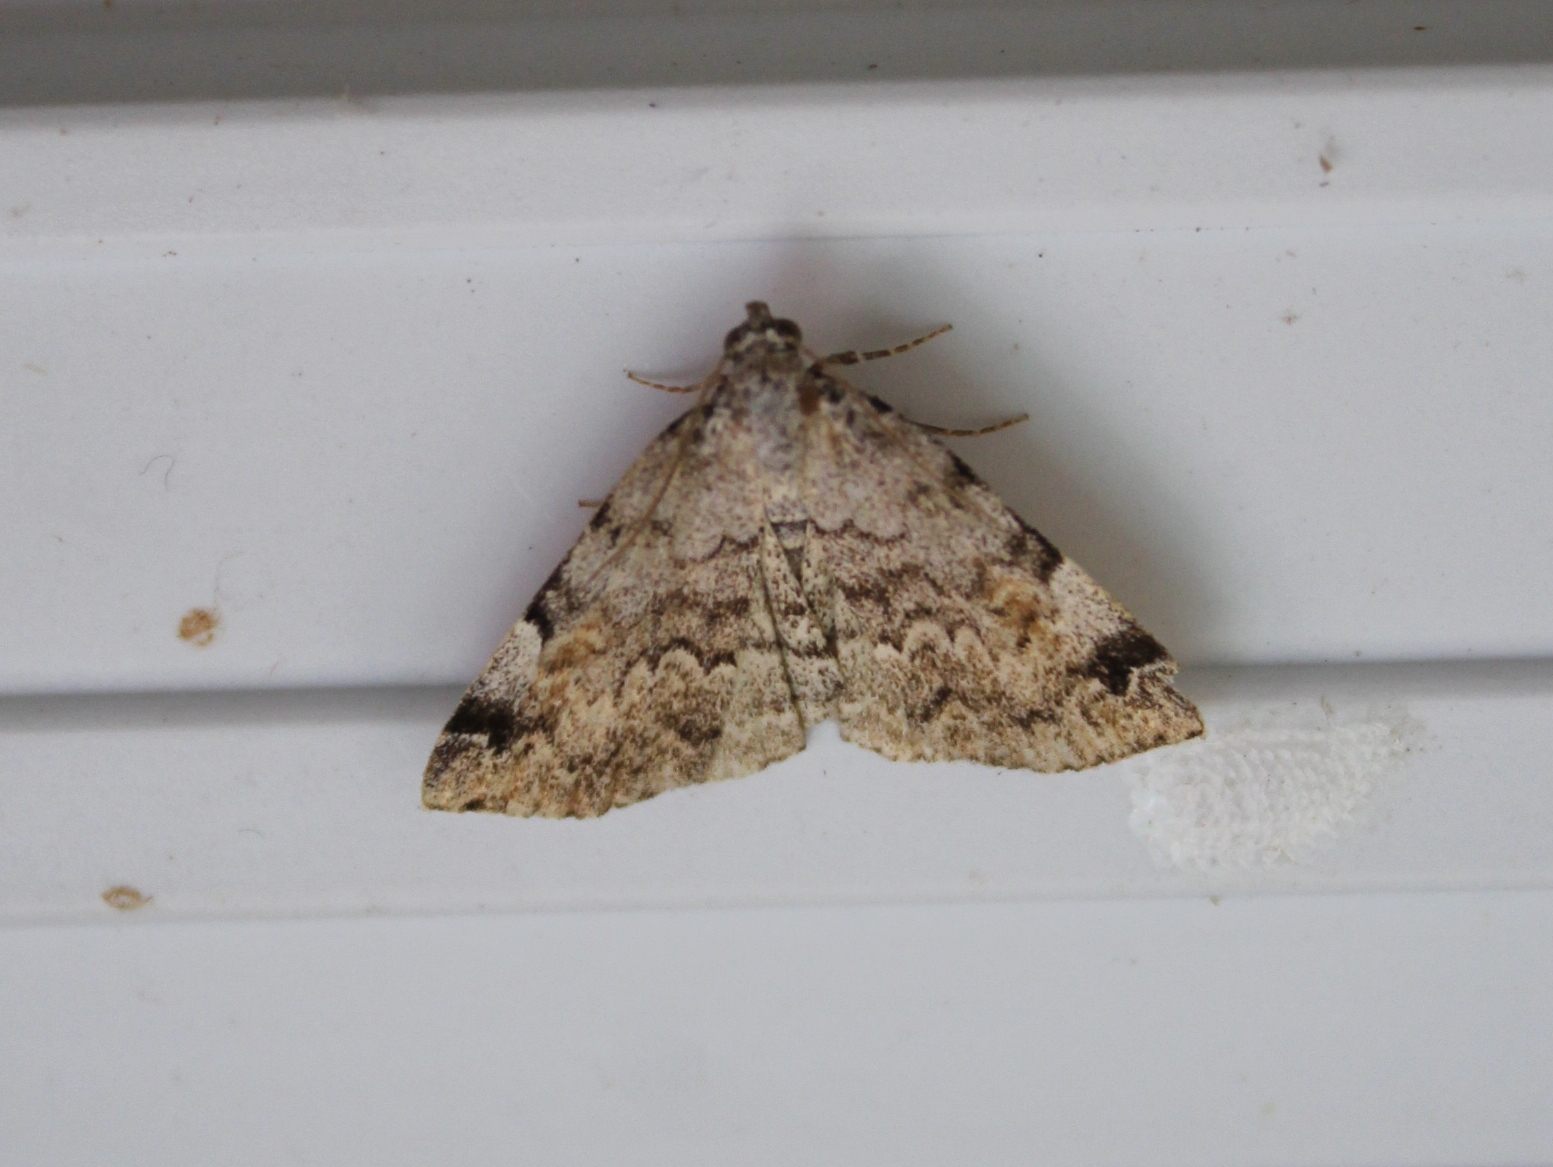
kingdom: Animalia
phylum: Arthropoda
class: Insecta
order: Lepidoptera
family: Erebidae
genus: Idia
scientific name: Idia americalis
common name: American idia moth
